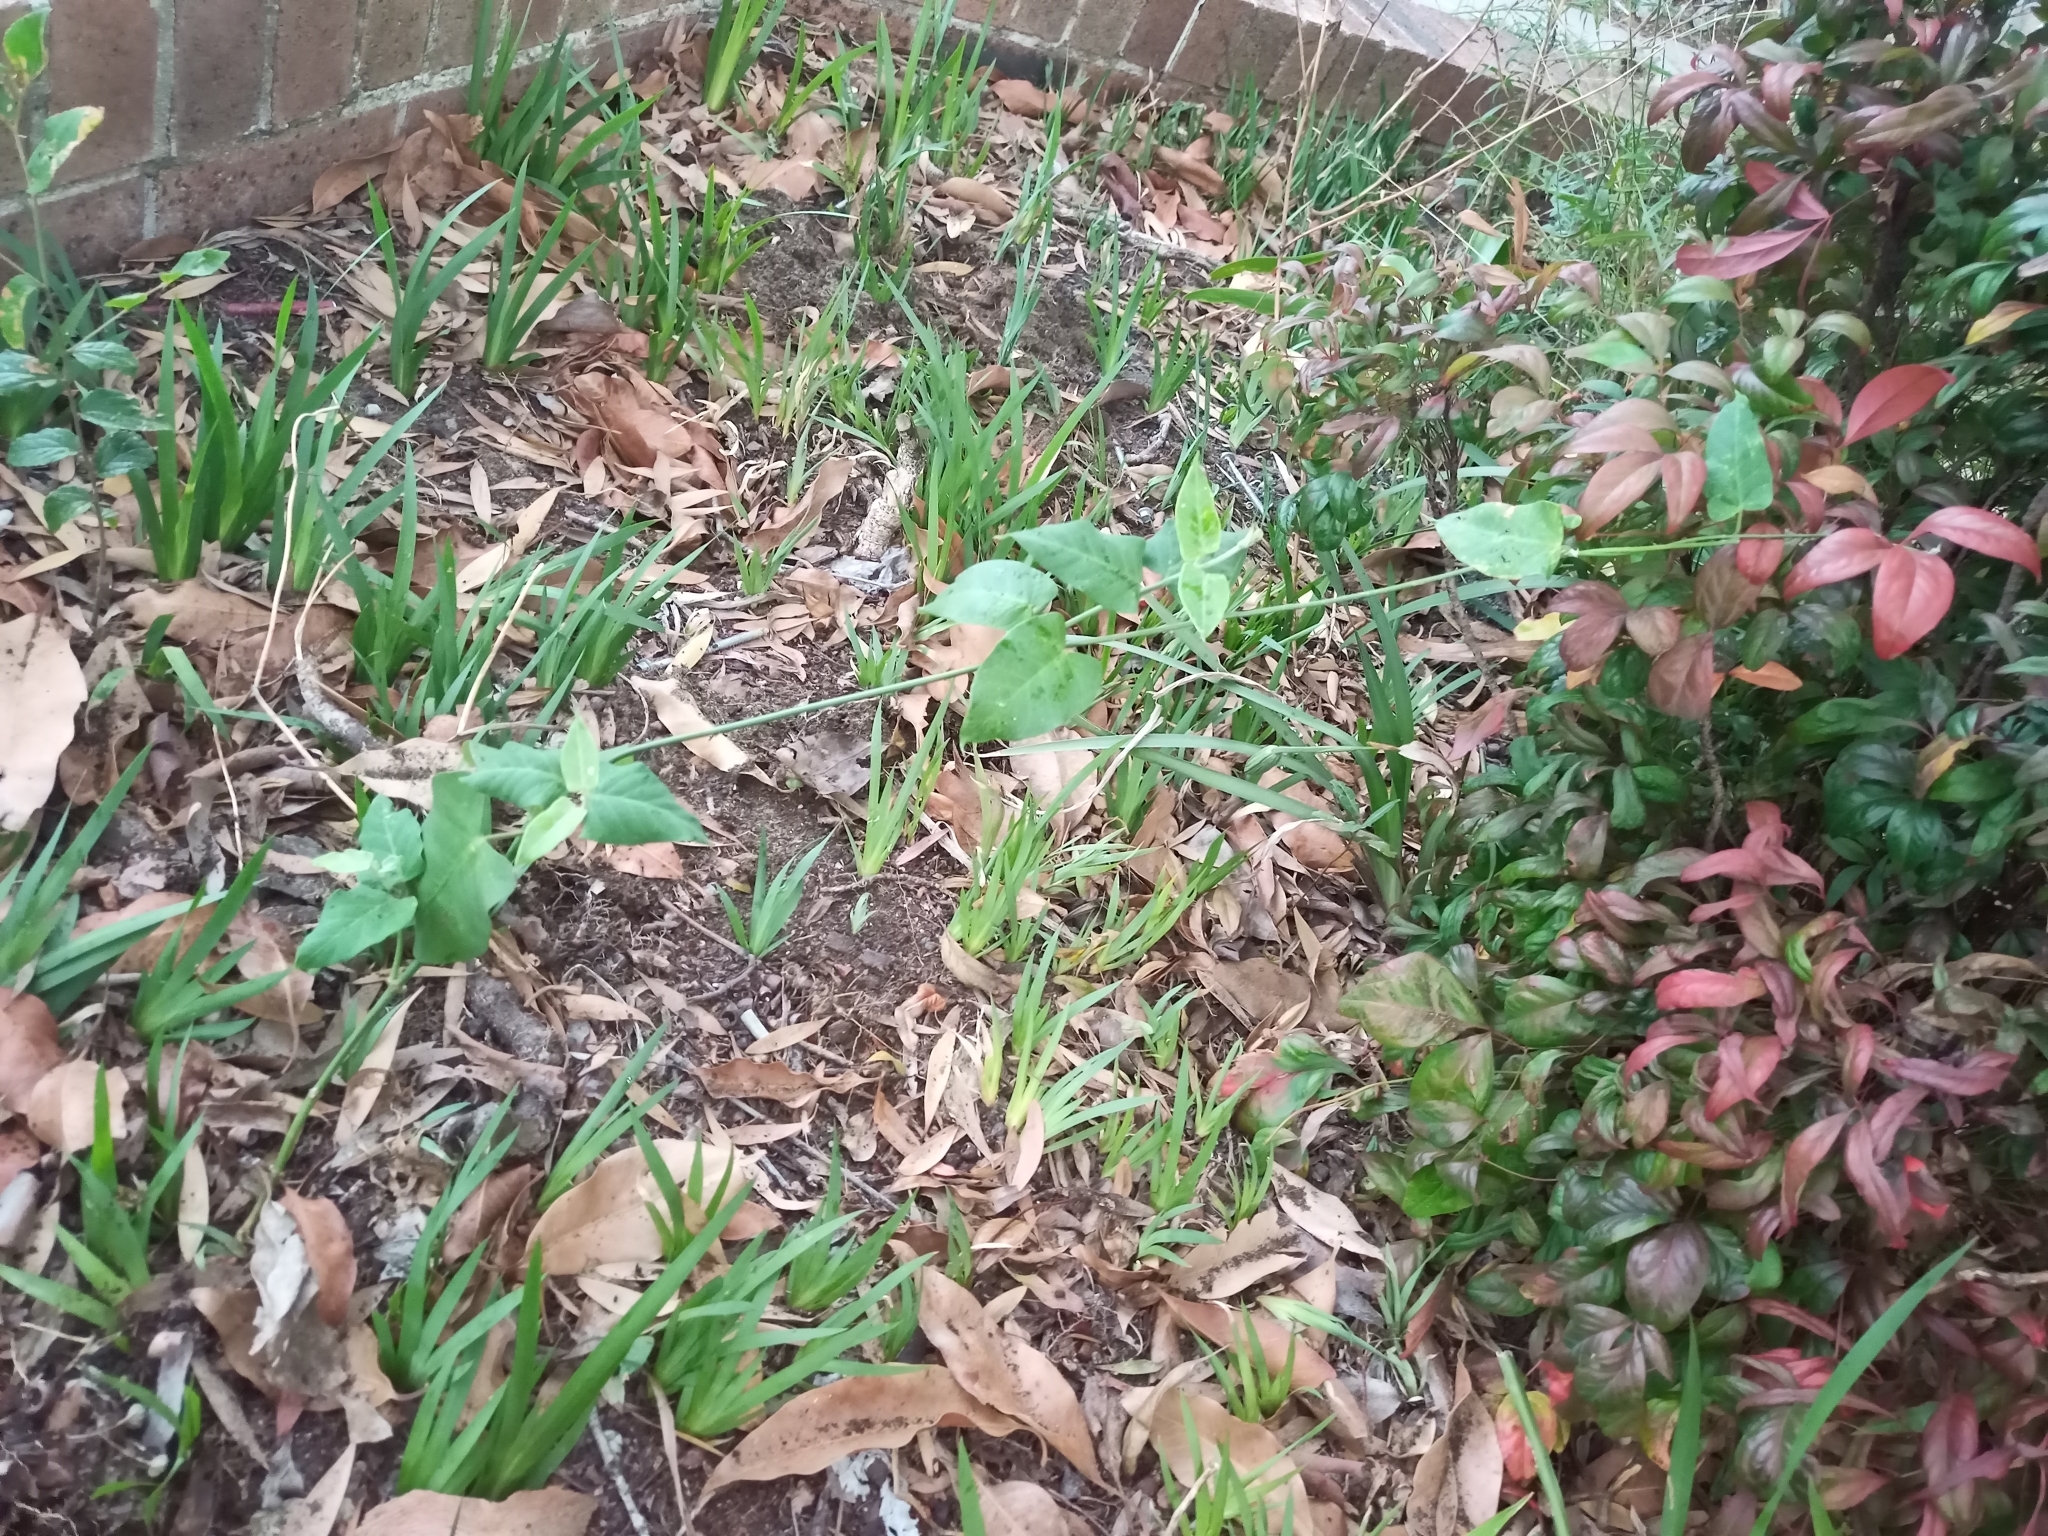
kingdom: Plantae
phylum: Tracheophyta
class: Magnoliopsida
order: Gentianales
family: Apocynaceae
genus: Araujia
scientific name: Araujia sericifera
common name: White bladderflower
